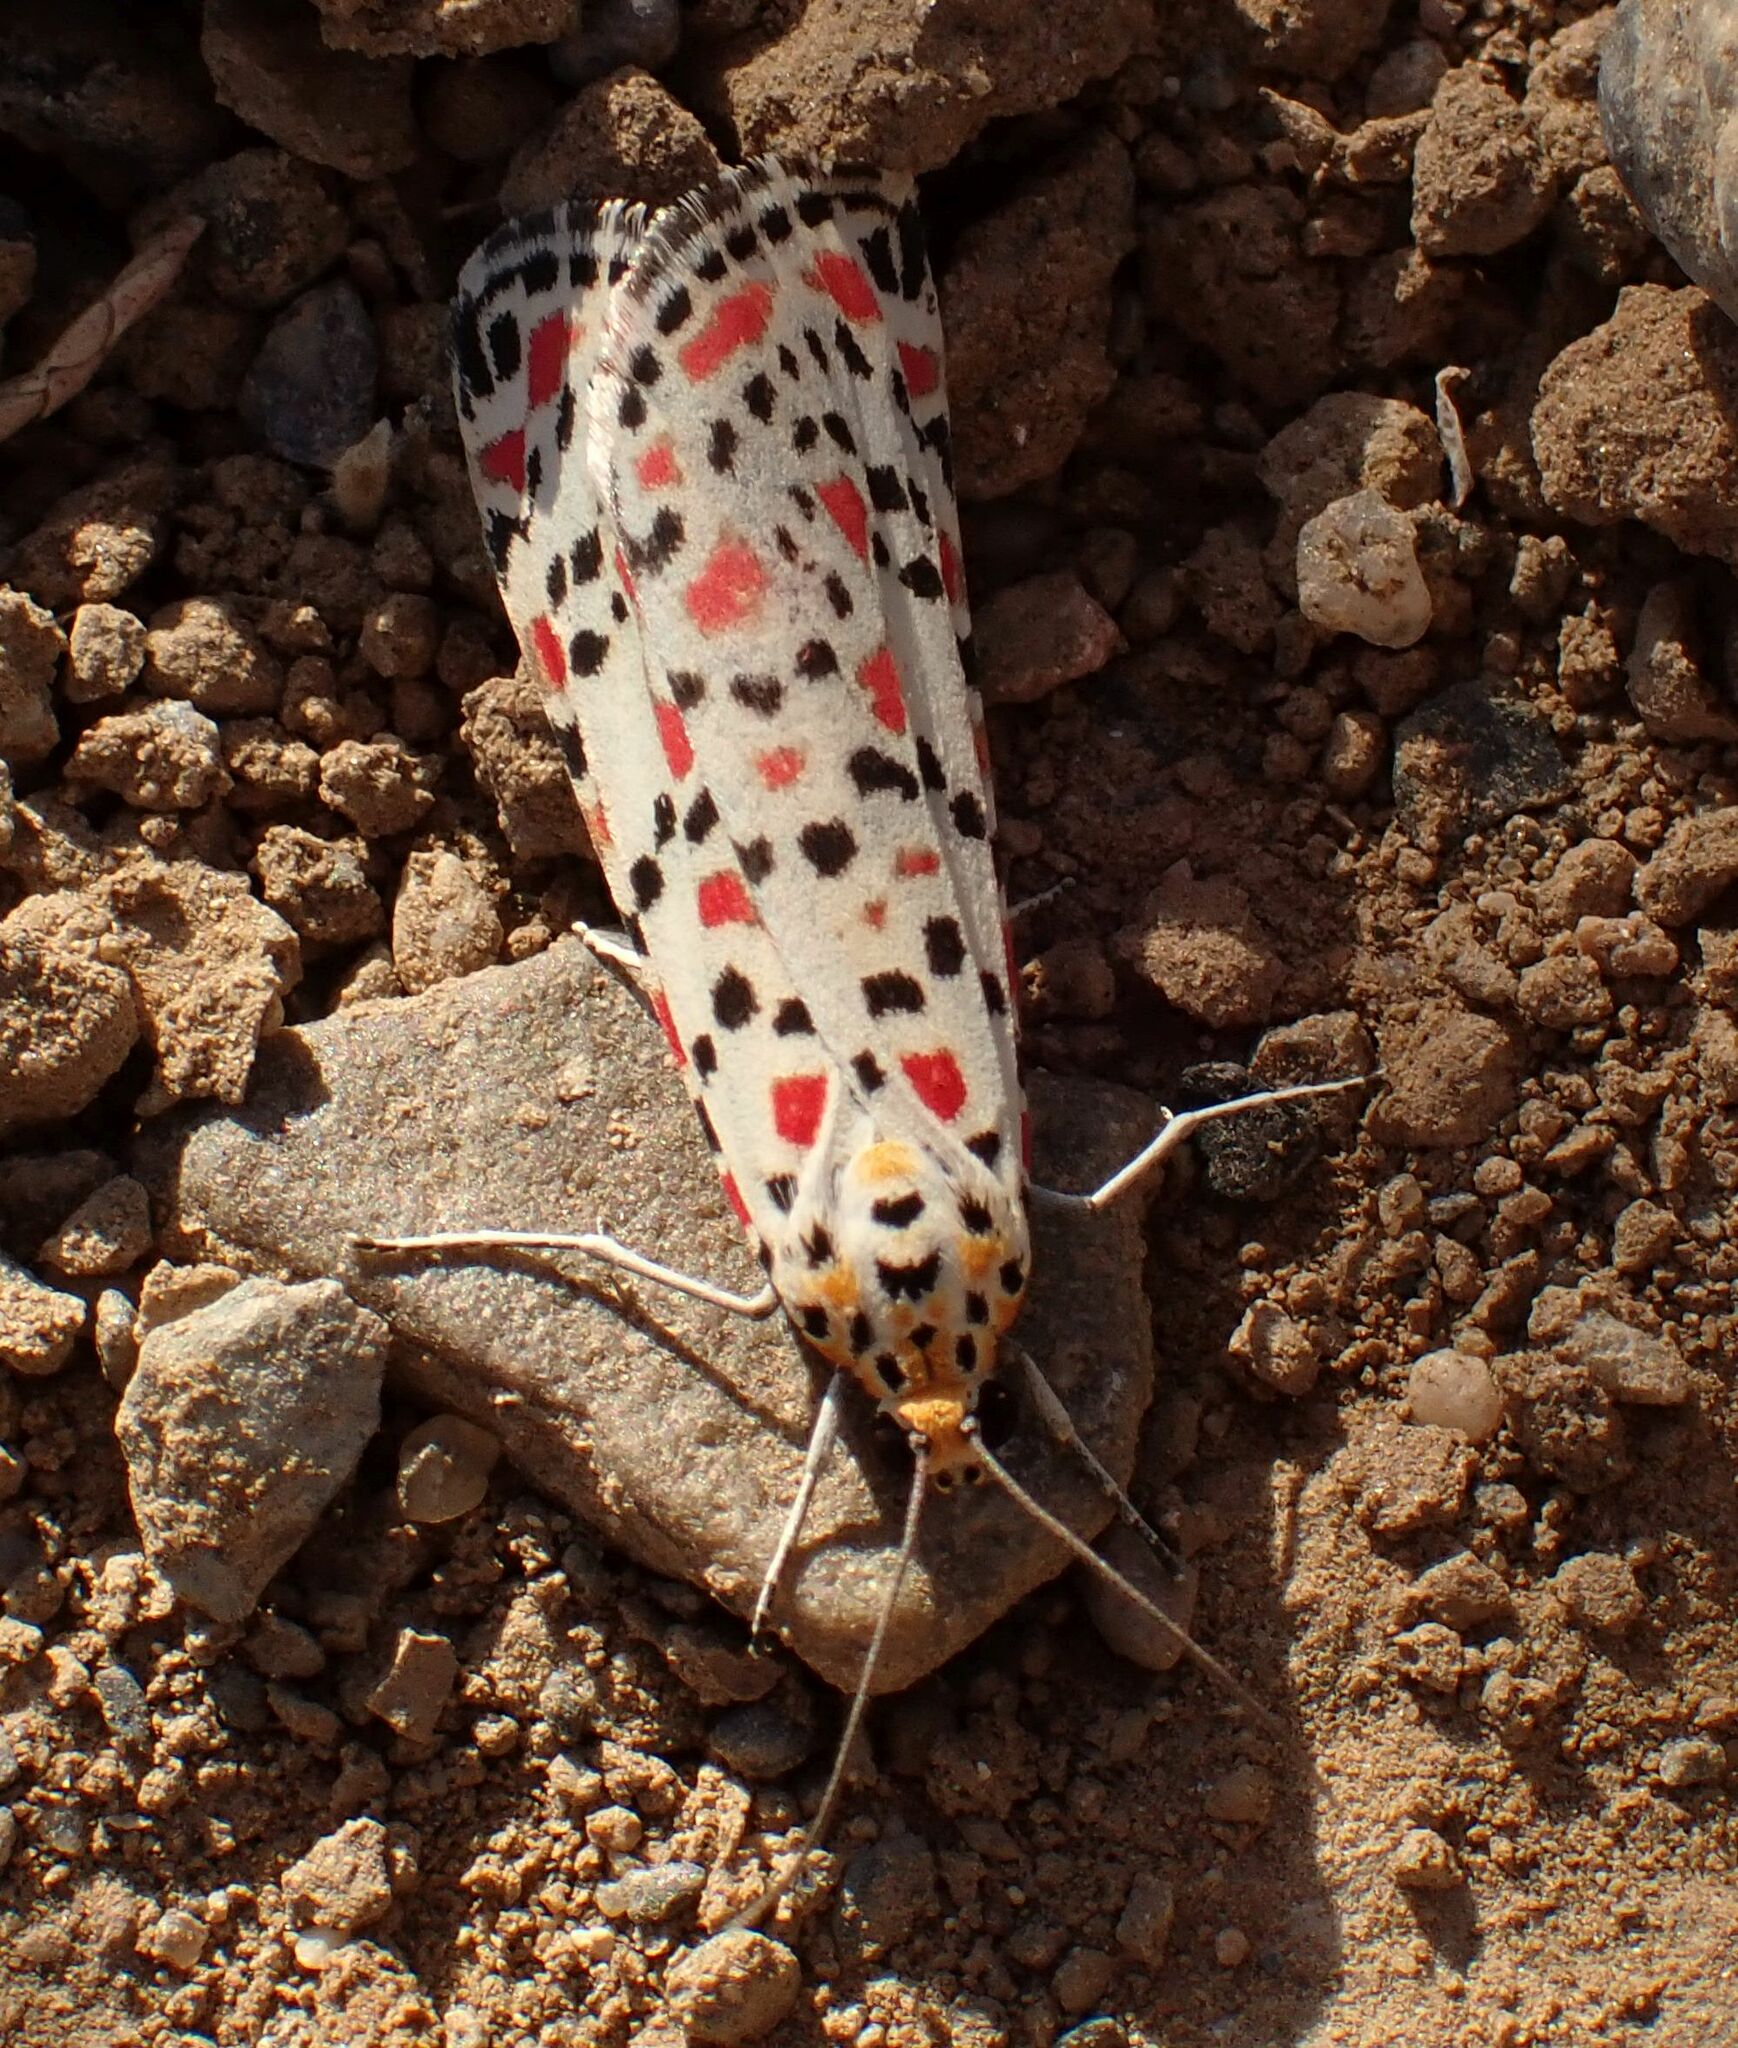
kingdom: Animalia
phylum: Arthropoda
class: Insecta
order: Lepidoptera
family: Erebidae
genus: Utetheisa
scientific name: Utetheisa pulchella
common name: Crimson speckled
